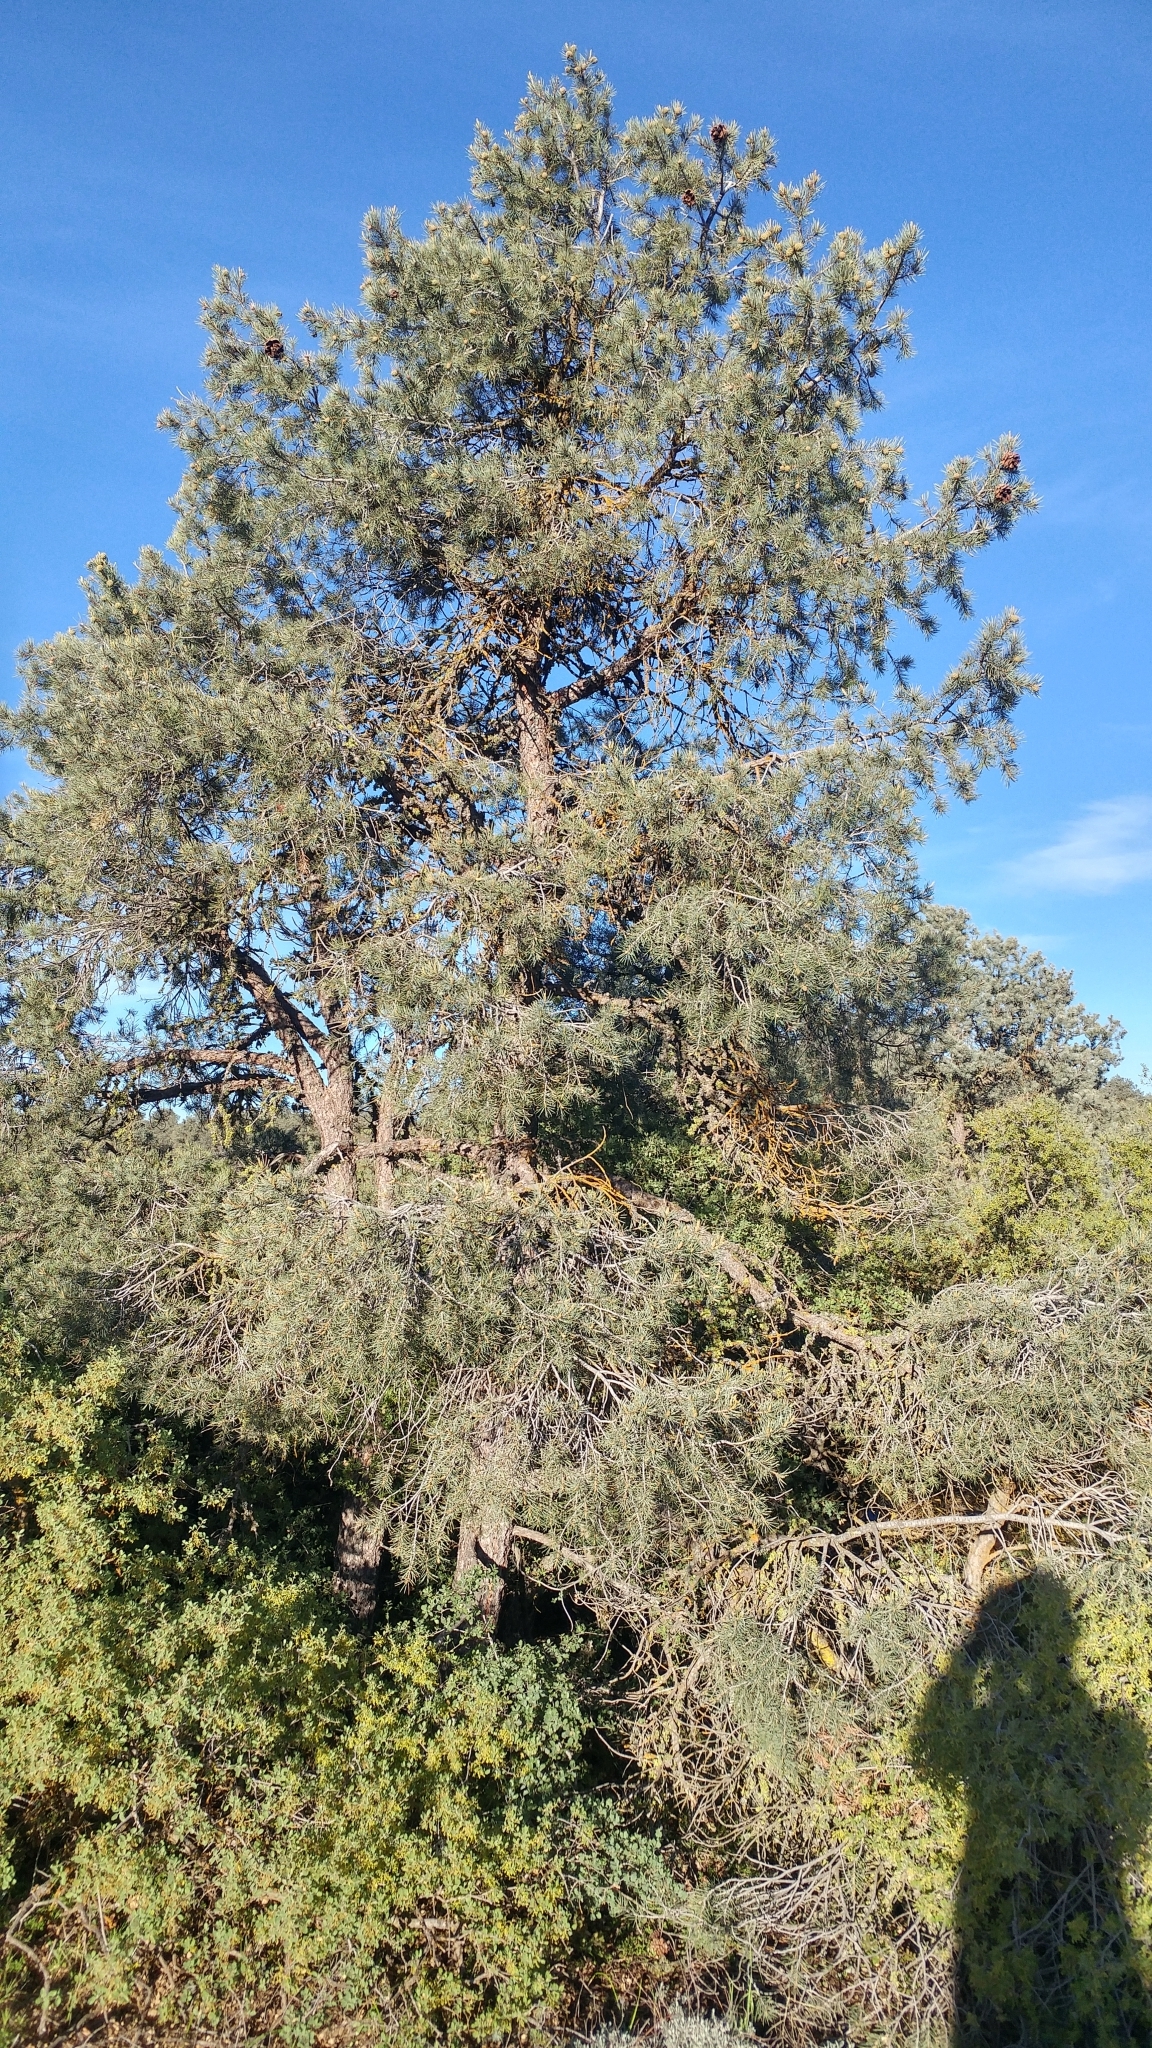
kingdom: Plantae
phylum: Tracheophyta
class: Pinopsida
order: Pinales
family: Pinaceae
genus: Pinus
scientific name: Pinus monophylla
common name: One-leaved nut pine
